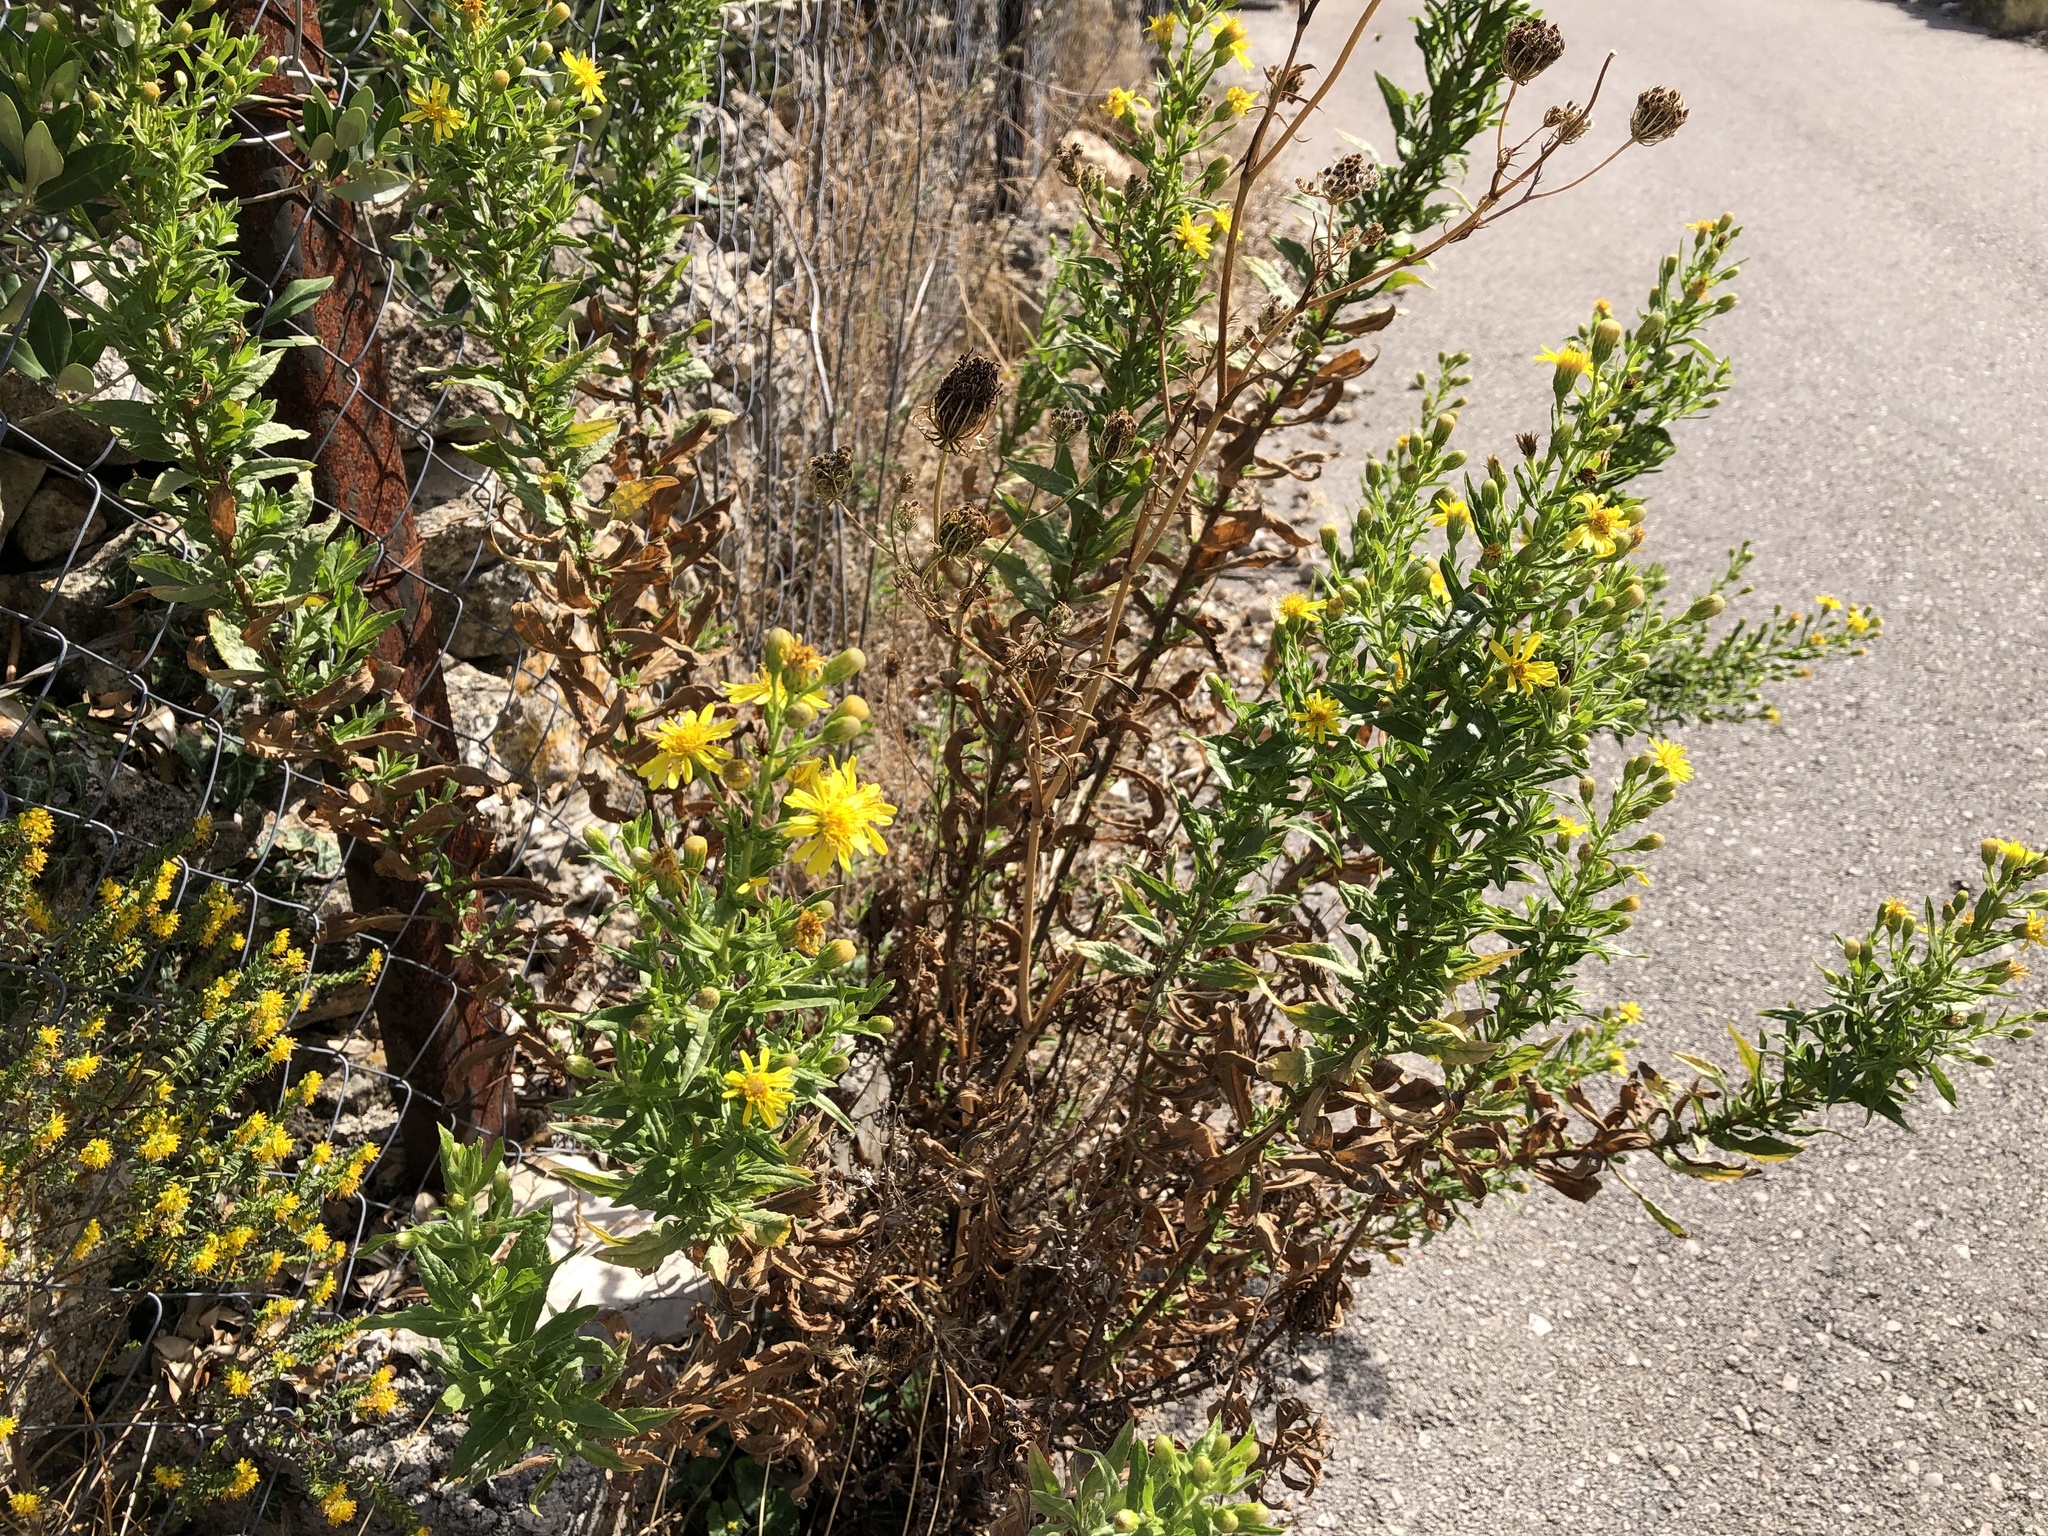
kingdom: Plantae
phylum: Tracheophyta
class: Magnoliopsida
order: Asterales
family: Asteraceae
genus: Dittrichia
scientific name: Dittrichia viscosa
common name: Woody fleabane
